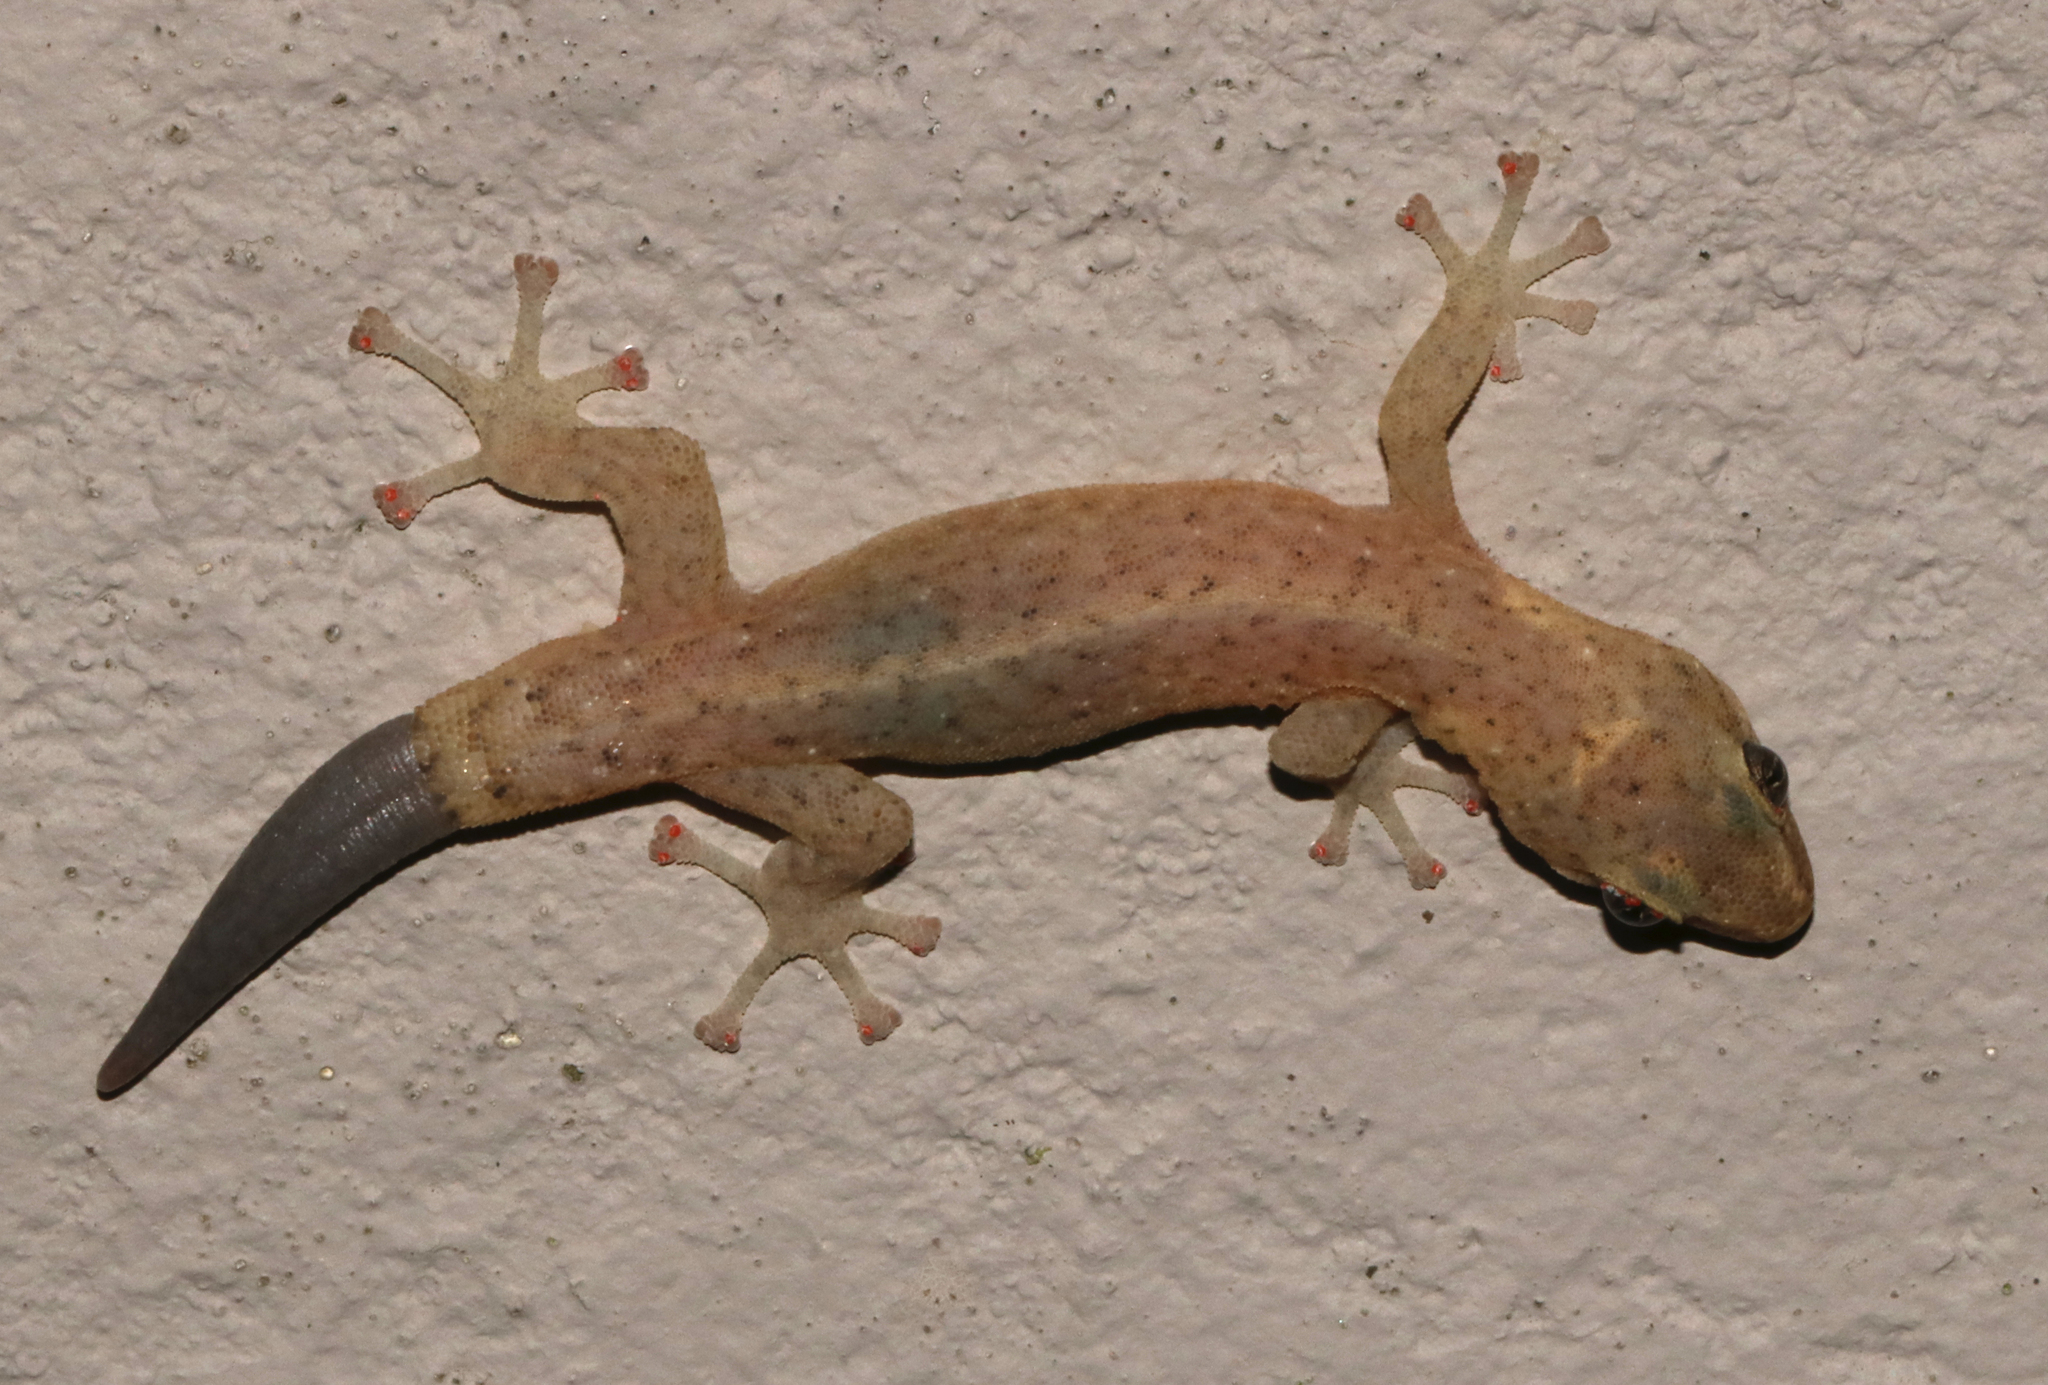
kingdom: Animalia
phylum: Chordata
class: Squamata
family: Gekkonidae
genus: Afrogecko
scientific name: Afrogecko porphyreus
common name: Marbled leaf-toed gecko
